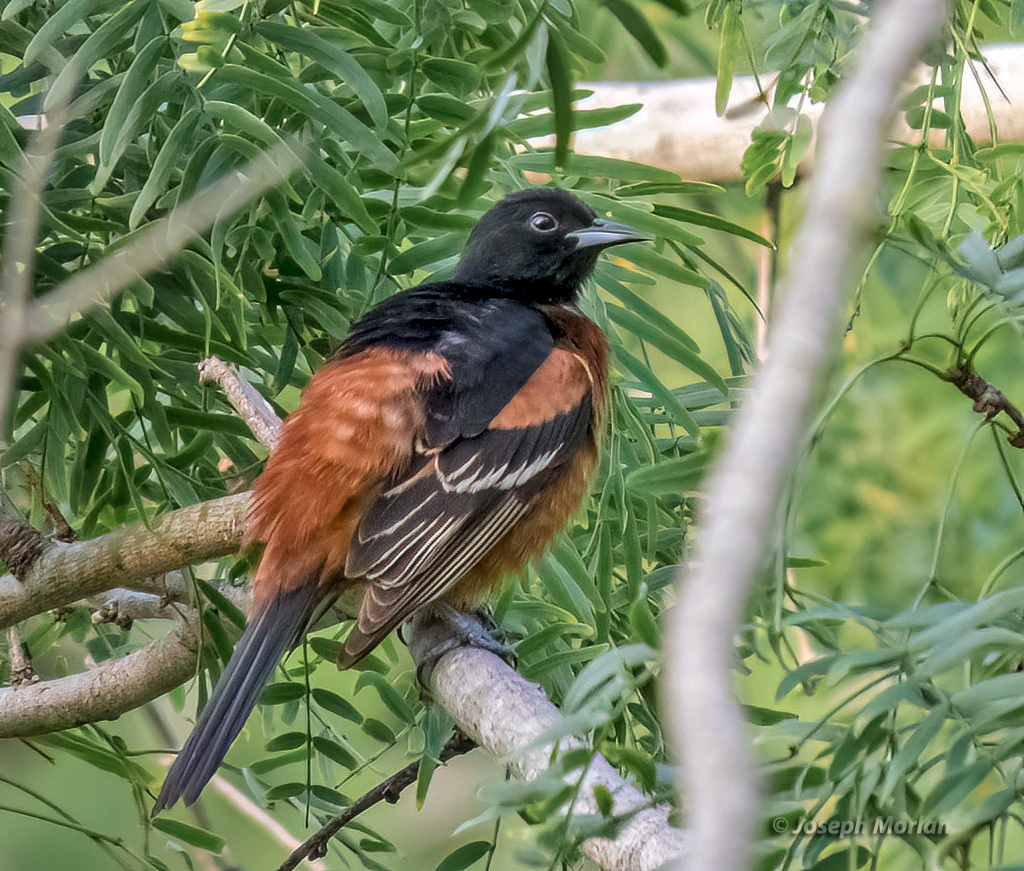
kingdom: Animalia
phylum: Chordata
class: Aves
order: Passeriformes
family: Icteridae
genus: Icterus
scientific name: Icterus spurius
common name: Orchard oriole
